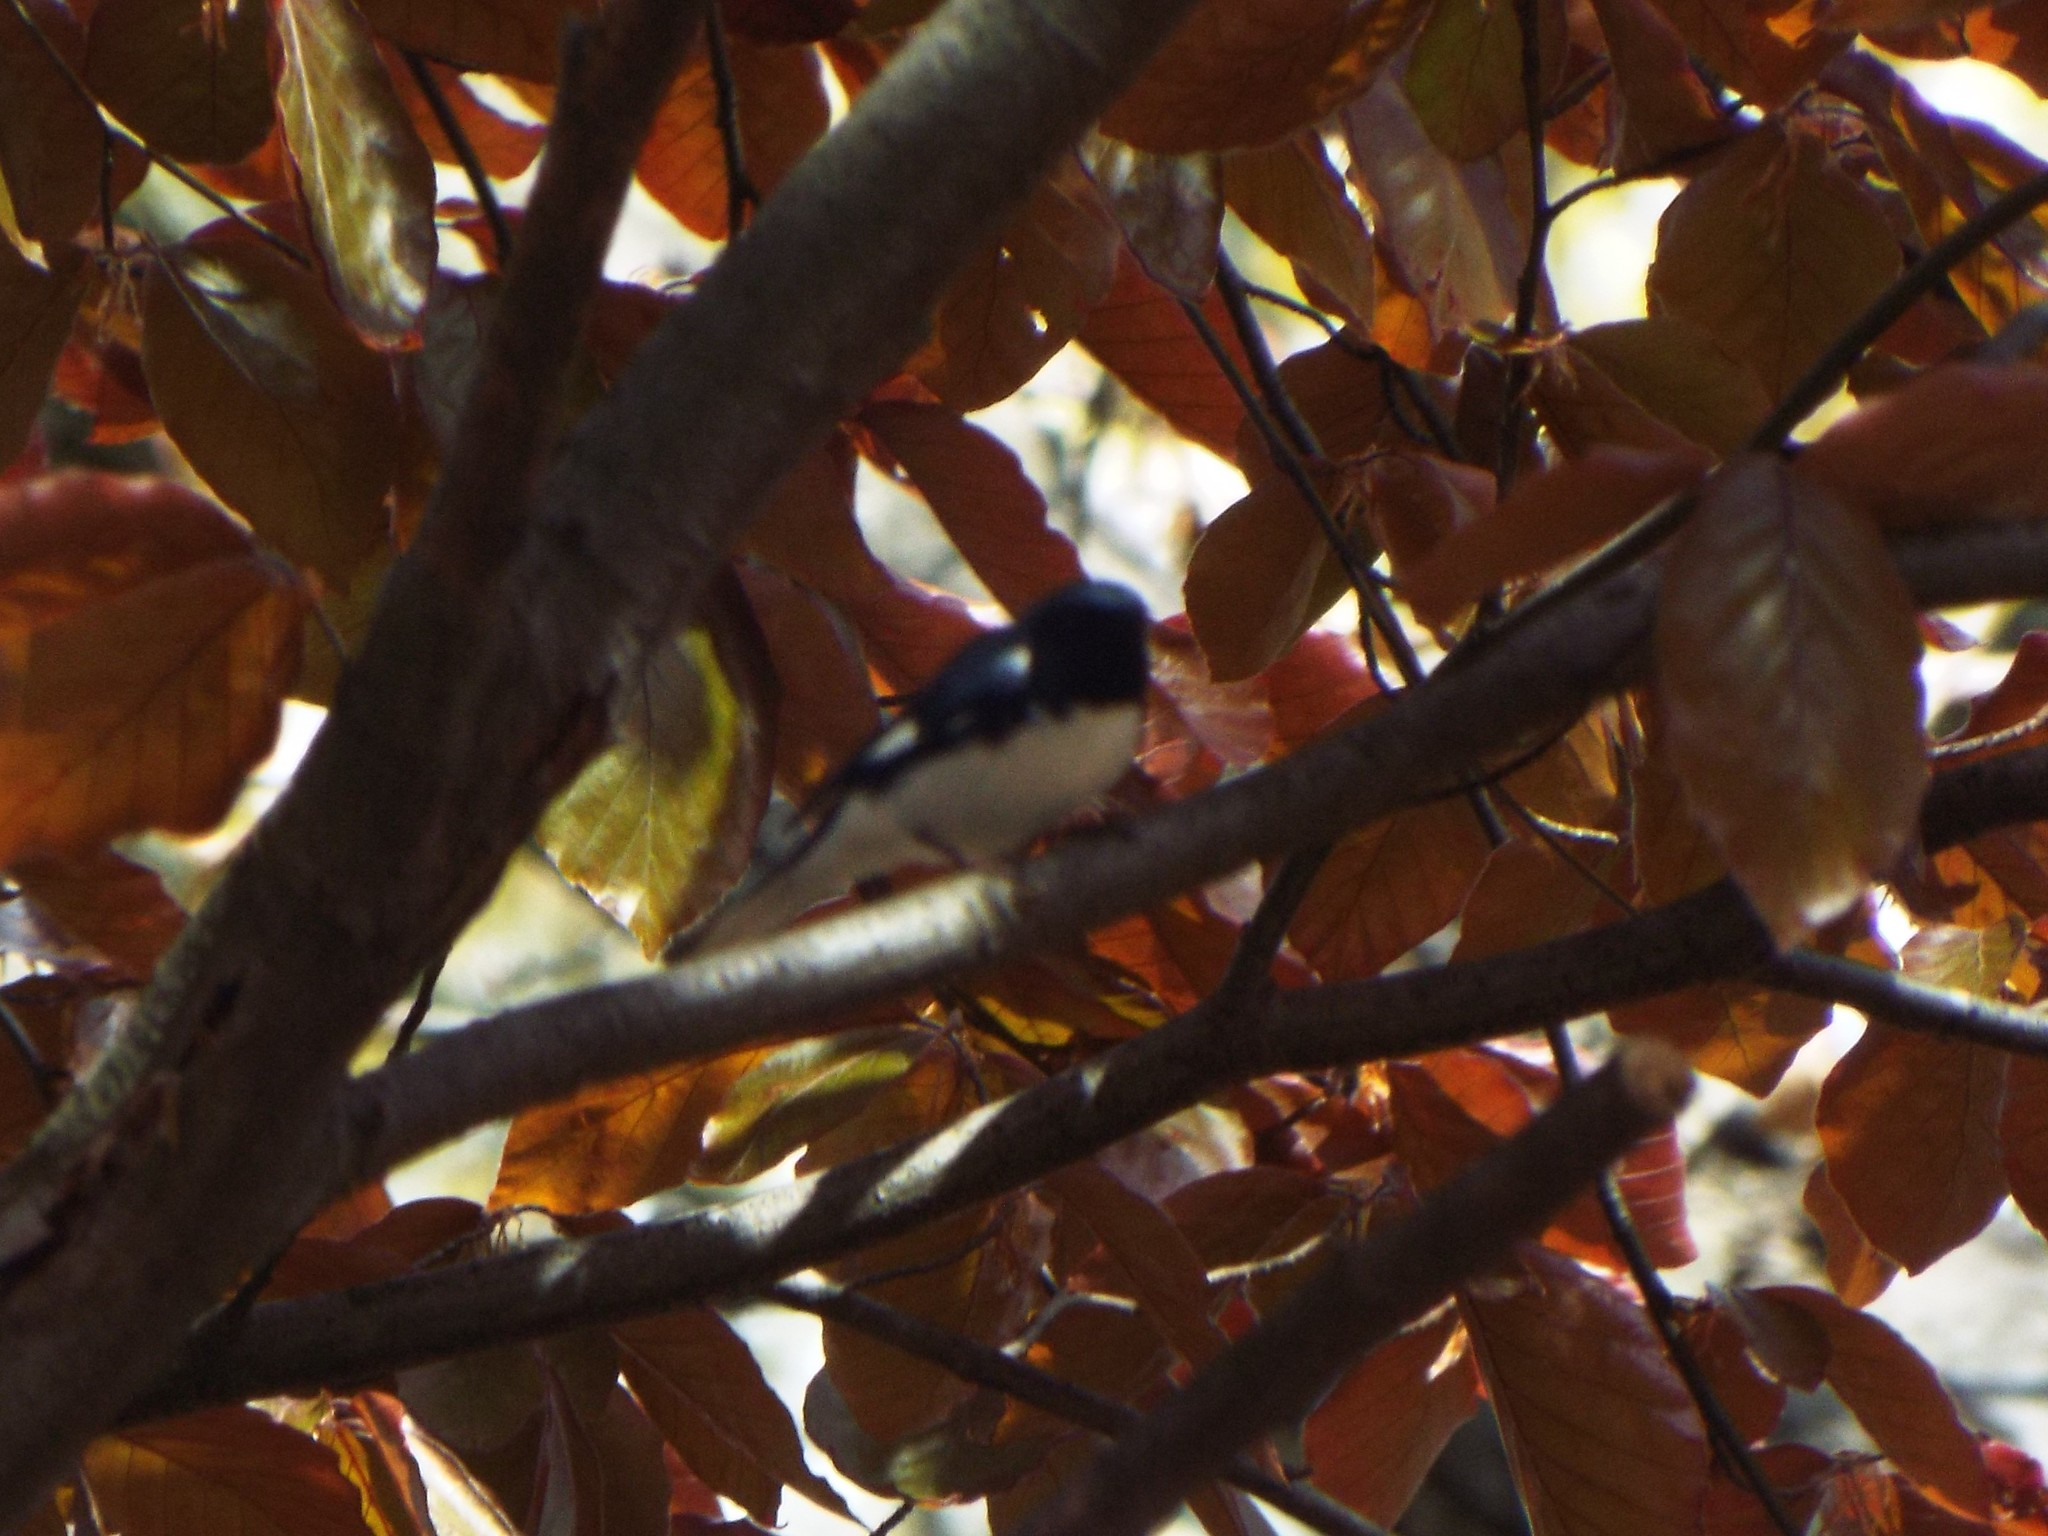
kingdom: Animalia
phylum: Chordata
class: Aves
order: Passeriformes
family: Parulidae
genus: Setophaga
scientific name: Setophaga caerulescens
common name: Black-throated blue warbler
